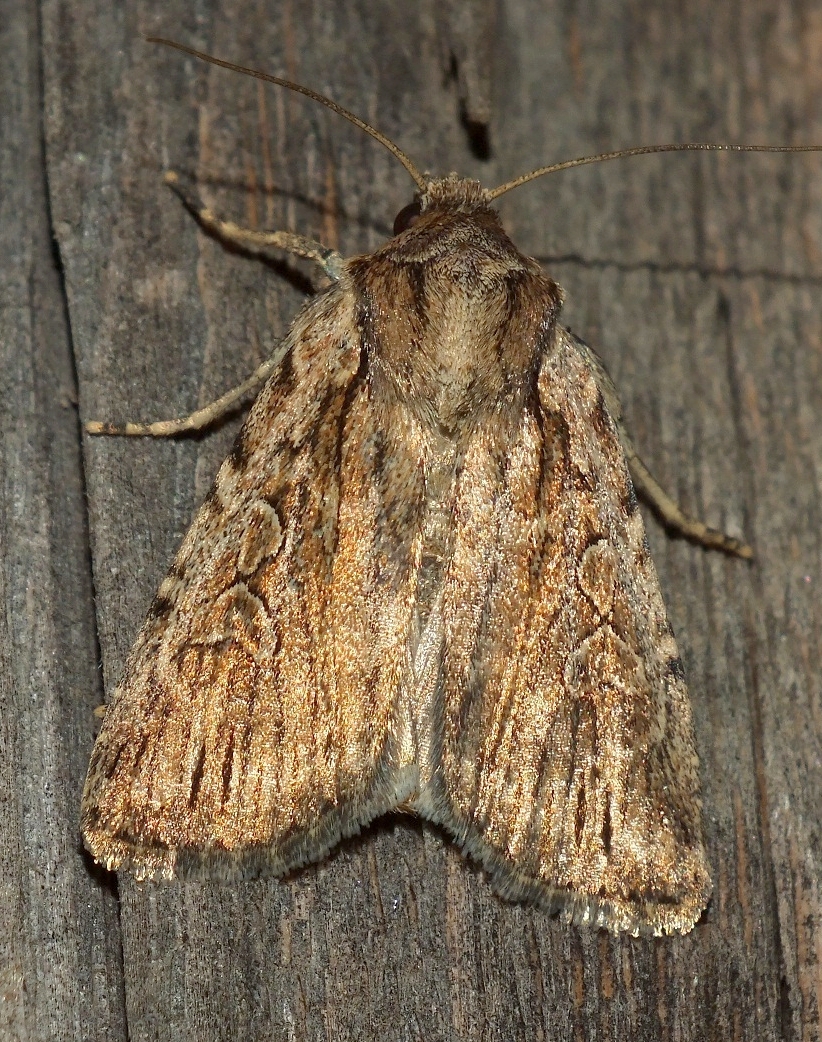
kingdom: Animalia
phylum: Arthropoda
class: Insecta
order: Lepidoptera
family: Noctuidae
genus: Yigoga
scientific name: Yigoga signifera
